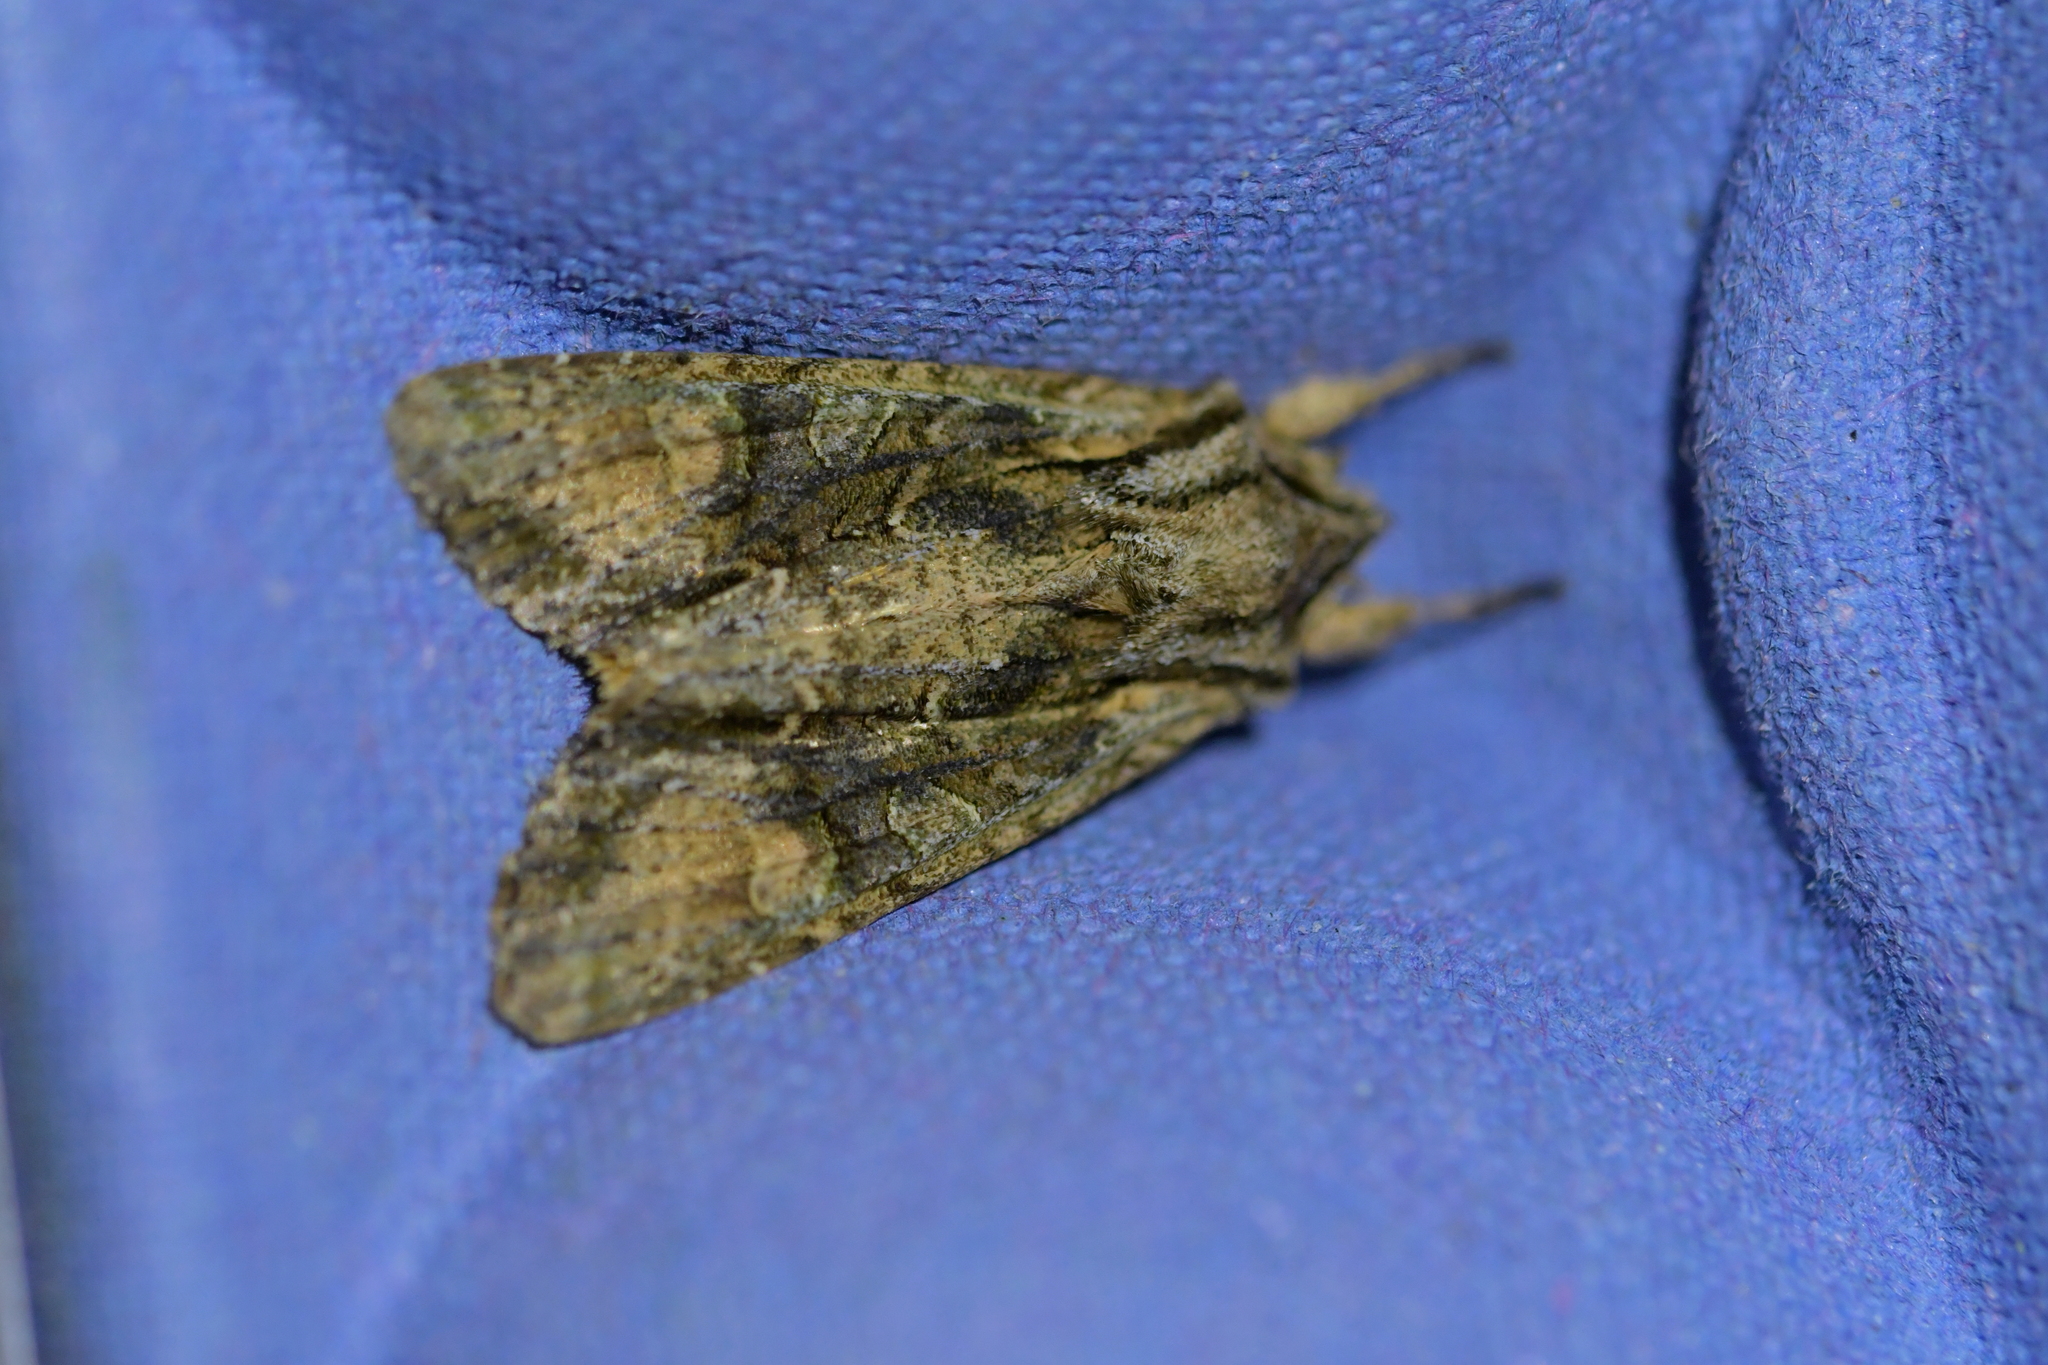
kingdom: Animalia
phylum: Arthropoda
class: Insecta
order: Lepidoptera
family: Noctuidae
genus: Ichneutica
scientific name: Ichneutica mutans
